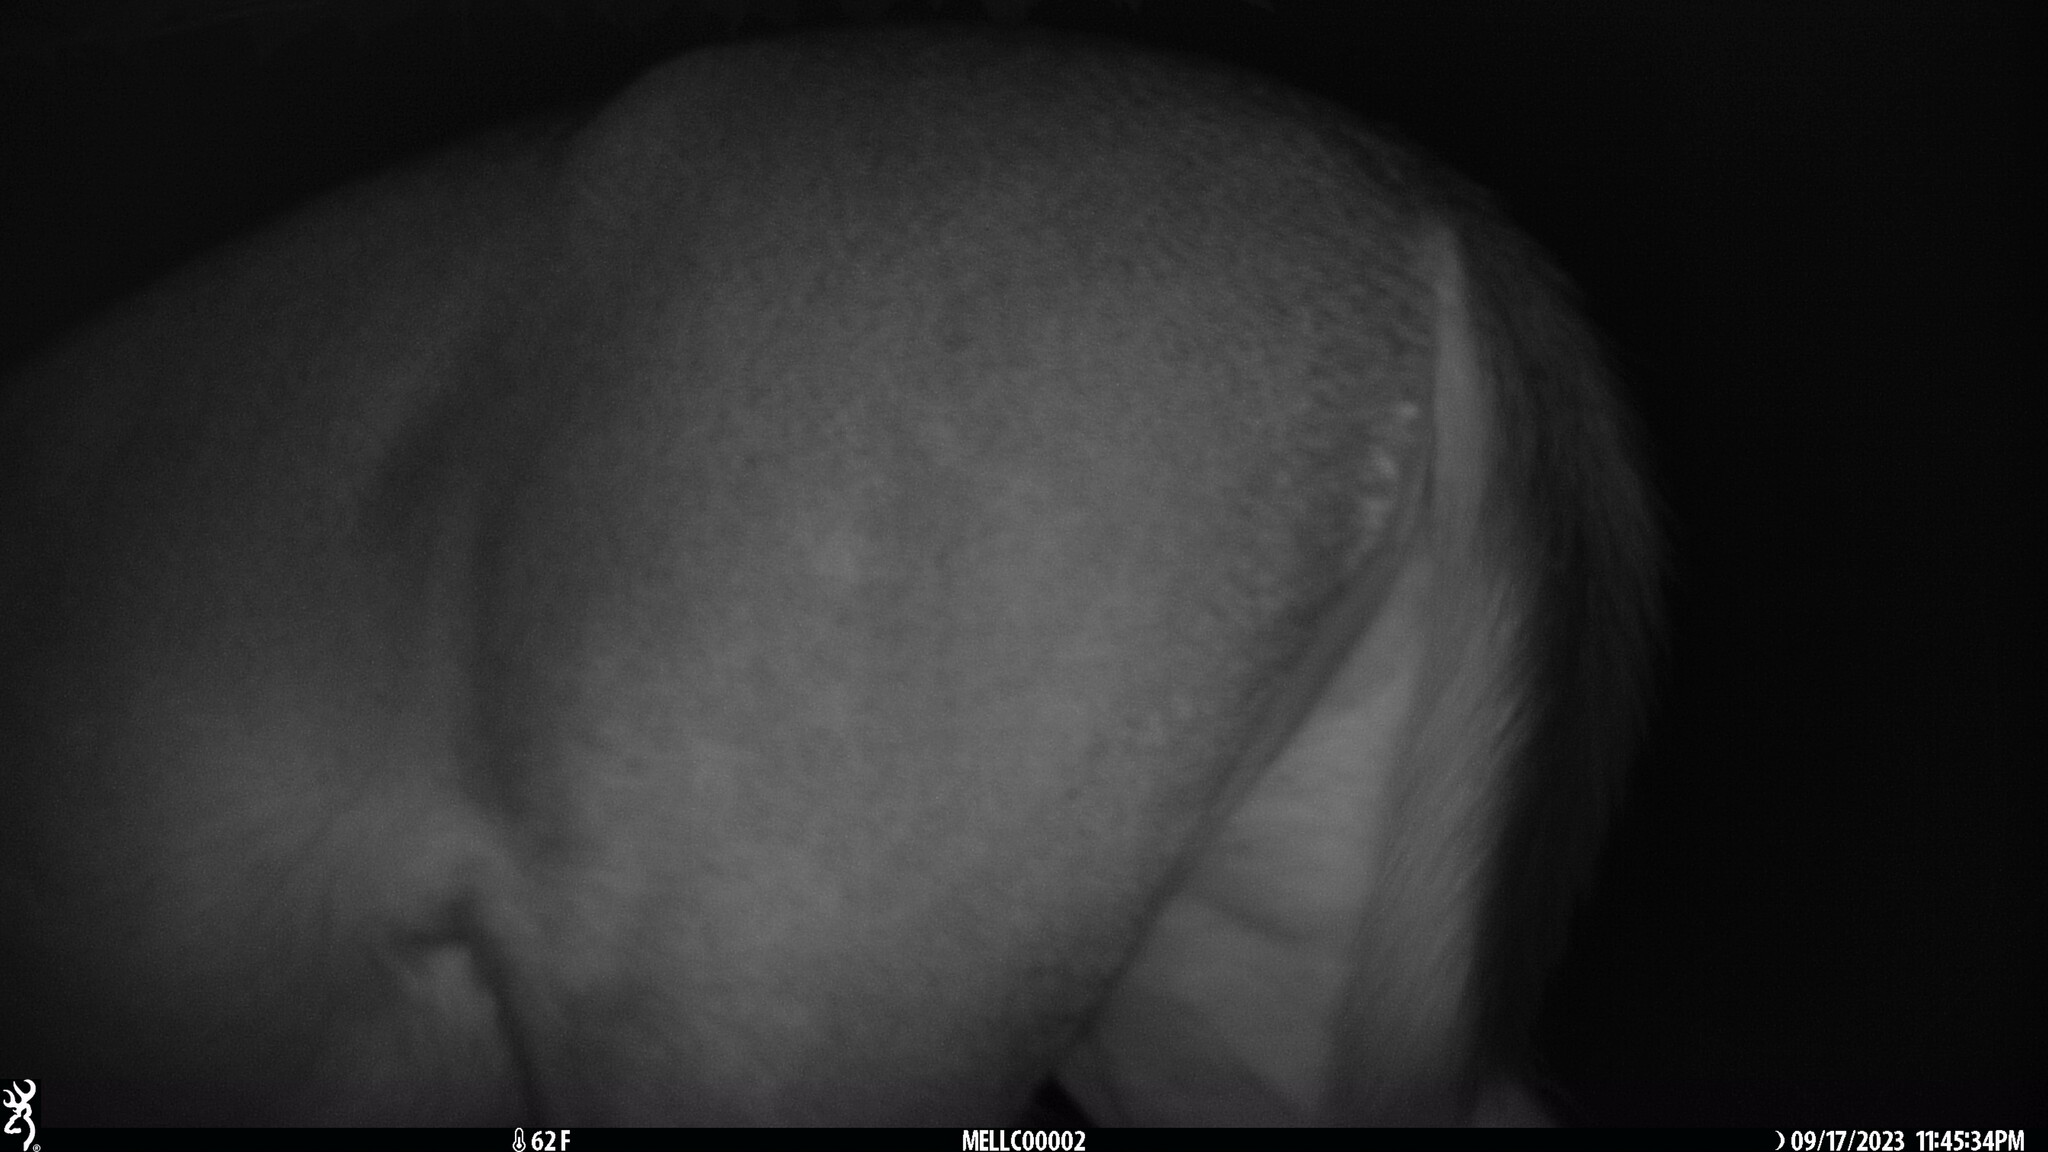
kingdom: Animalia
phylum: Chordata
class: Mammalia
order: Artiodactyla
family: Cervidae
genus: Odocoileus
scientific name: Odocoileus virginianus
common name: White-tailed deer
